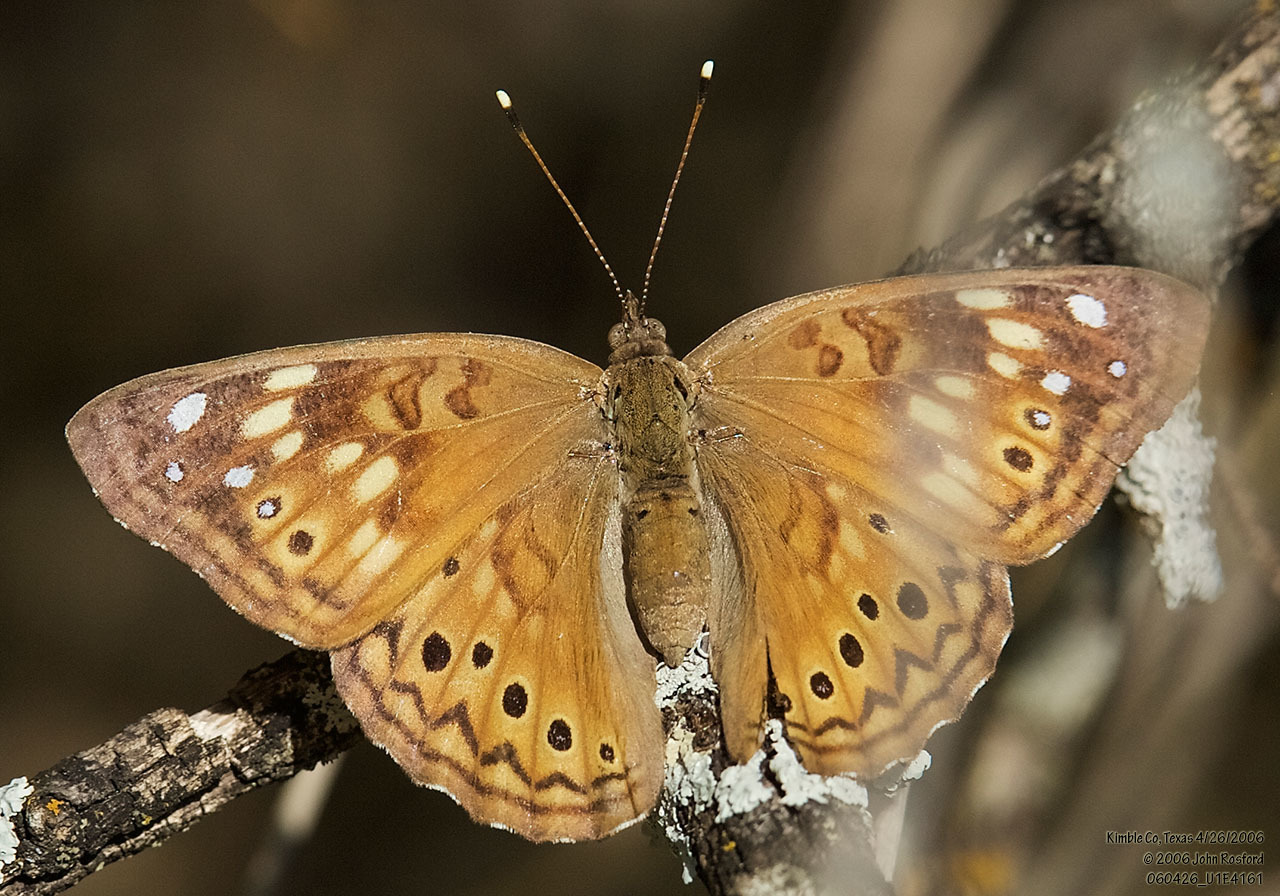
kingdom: Animalia
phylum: Arthropoda
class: Insecta
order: Lepidoptera
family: Nymphalidae
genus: Asterocampa
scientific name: Asterocampa celtis
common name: Hackberry emperor
